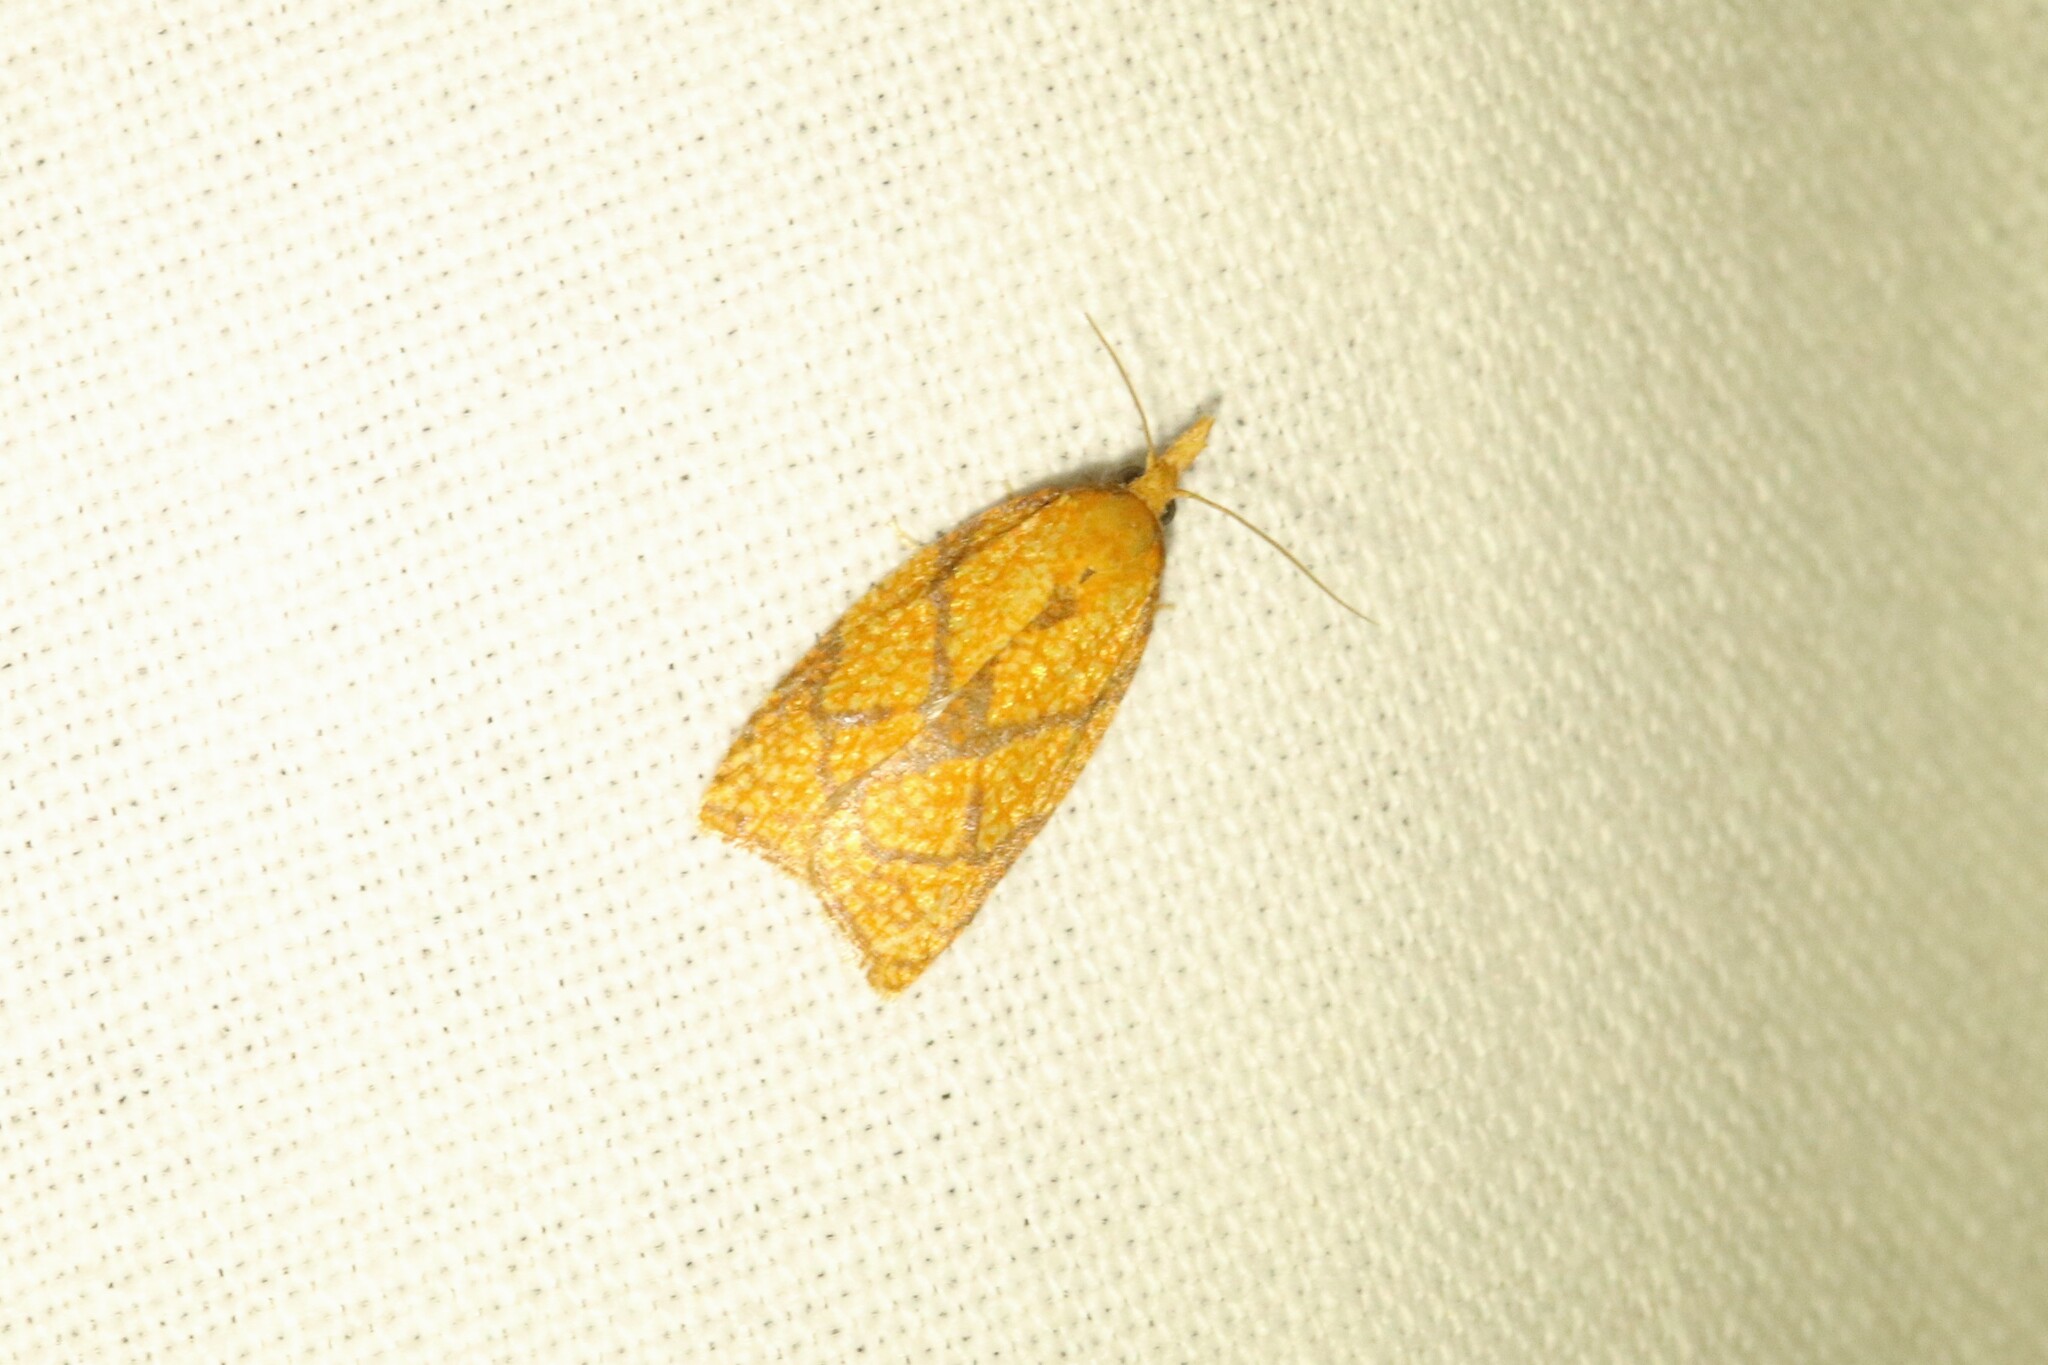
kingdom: Animalia
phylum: Arthropoda
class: Insecta
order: Lepidoptera
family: Tortricidae
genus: Cenopis
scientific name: Cenopis reticulatana
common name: Reticulated fruitworm moth
